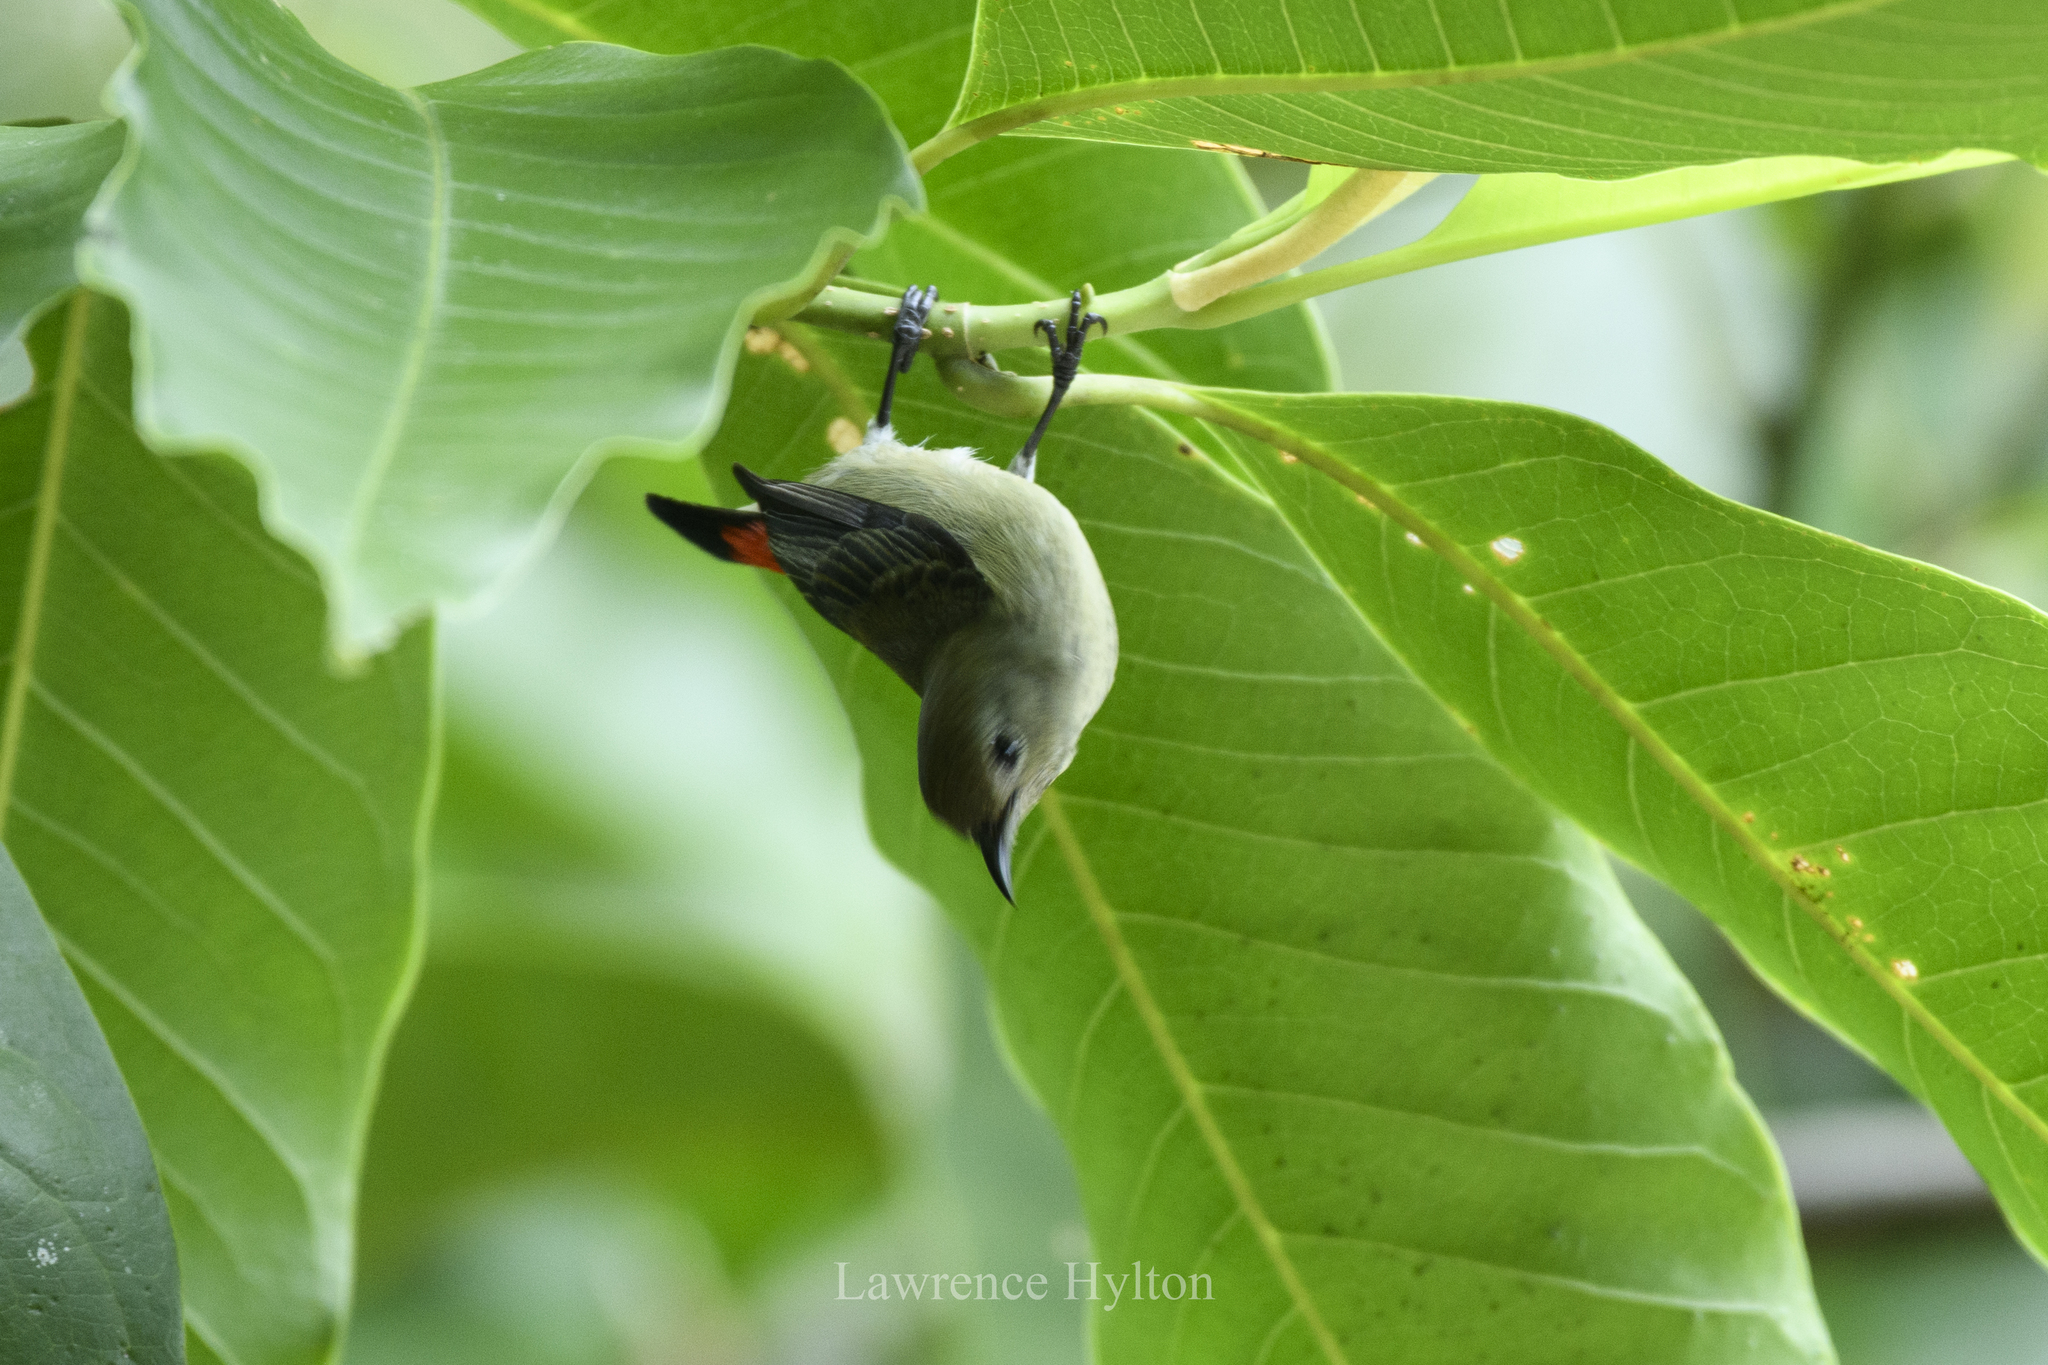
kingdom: Animalia
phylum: Chordata
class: Aves
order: Passeriformes
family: Dicaeidae
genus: Dicaeum
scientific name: Dicaeum cruentatum
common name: Scarlet-backed flowerpecker
